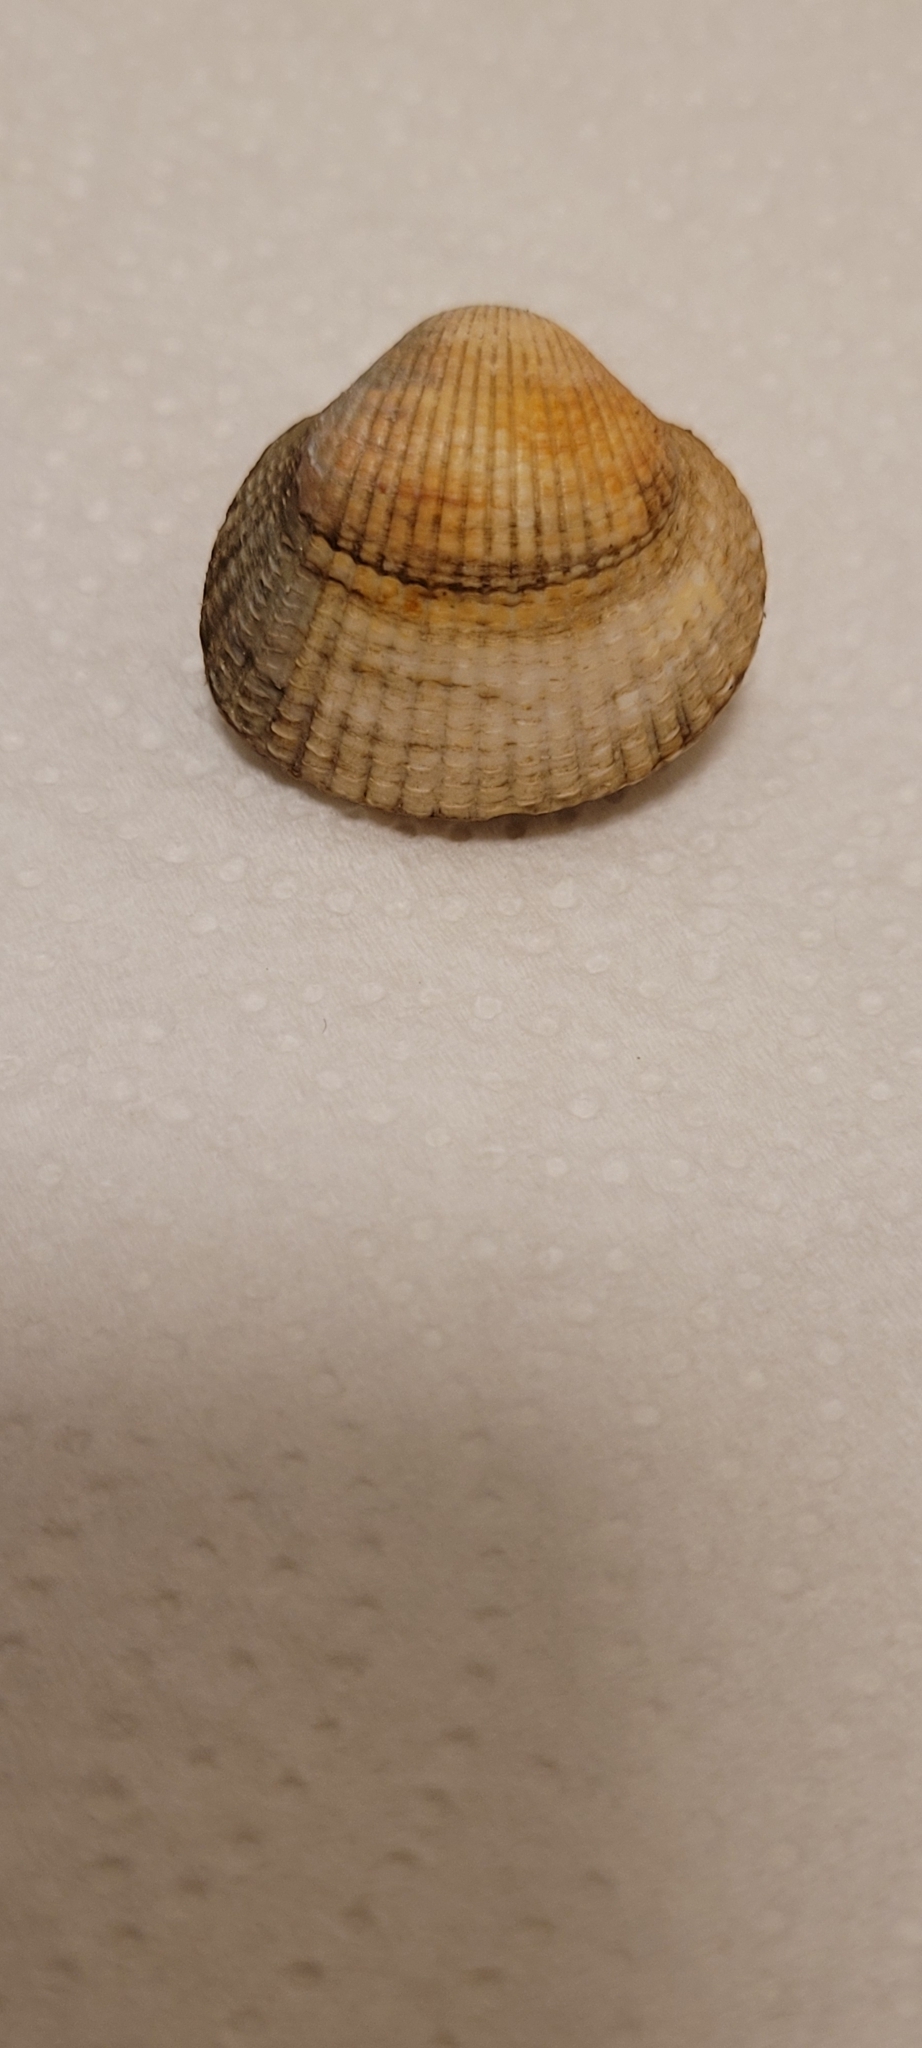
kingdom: Animalia
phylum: Mollusca
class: Bivalvia
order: Cardiida
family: Cardiidae
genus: Cerastoderma
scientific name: Cerastoderma edule
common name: Common cockle
